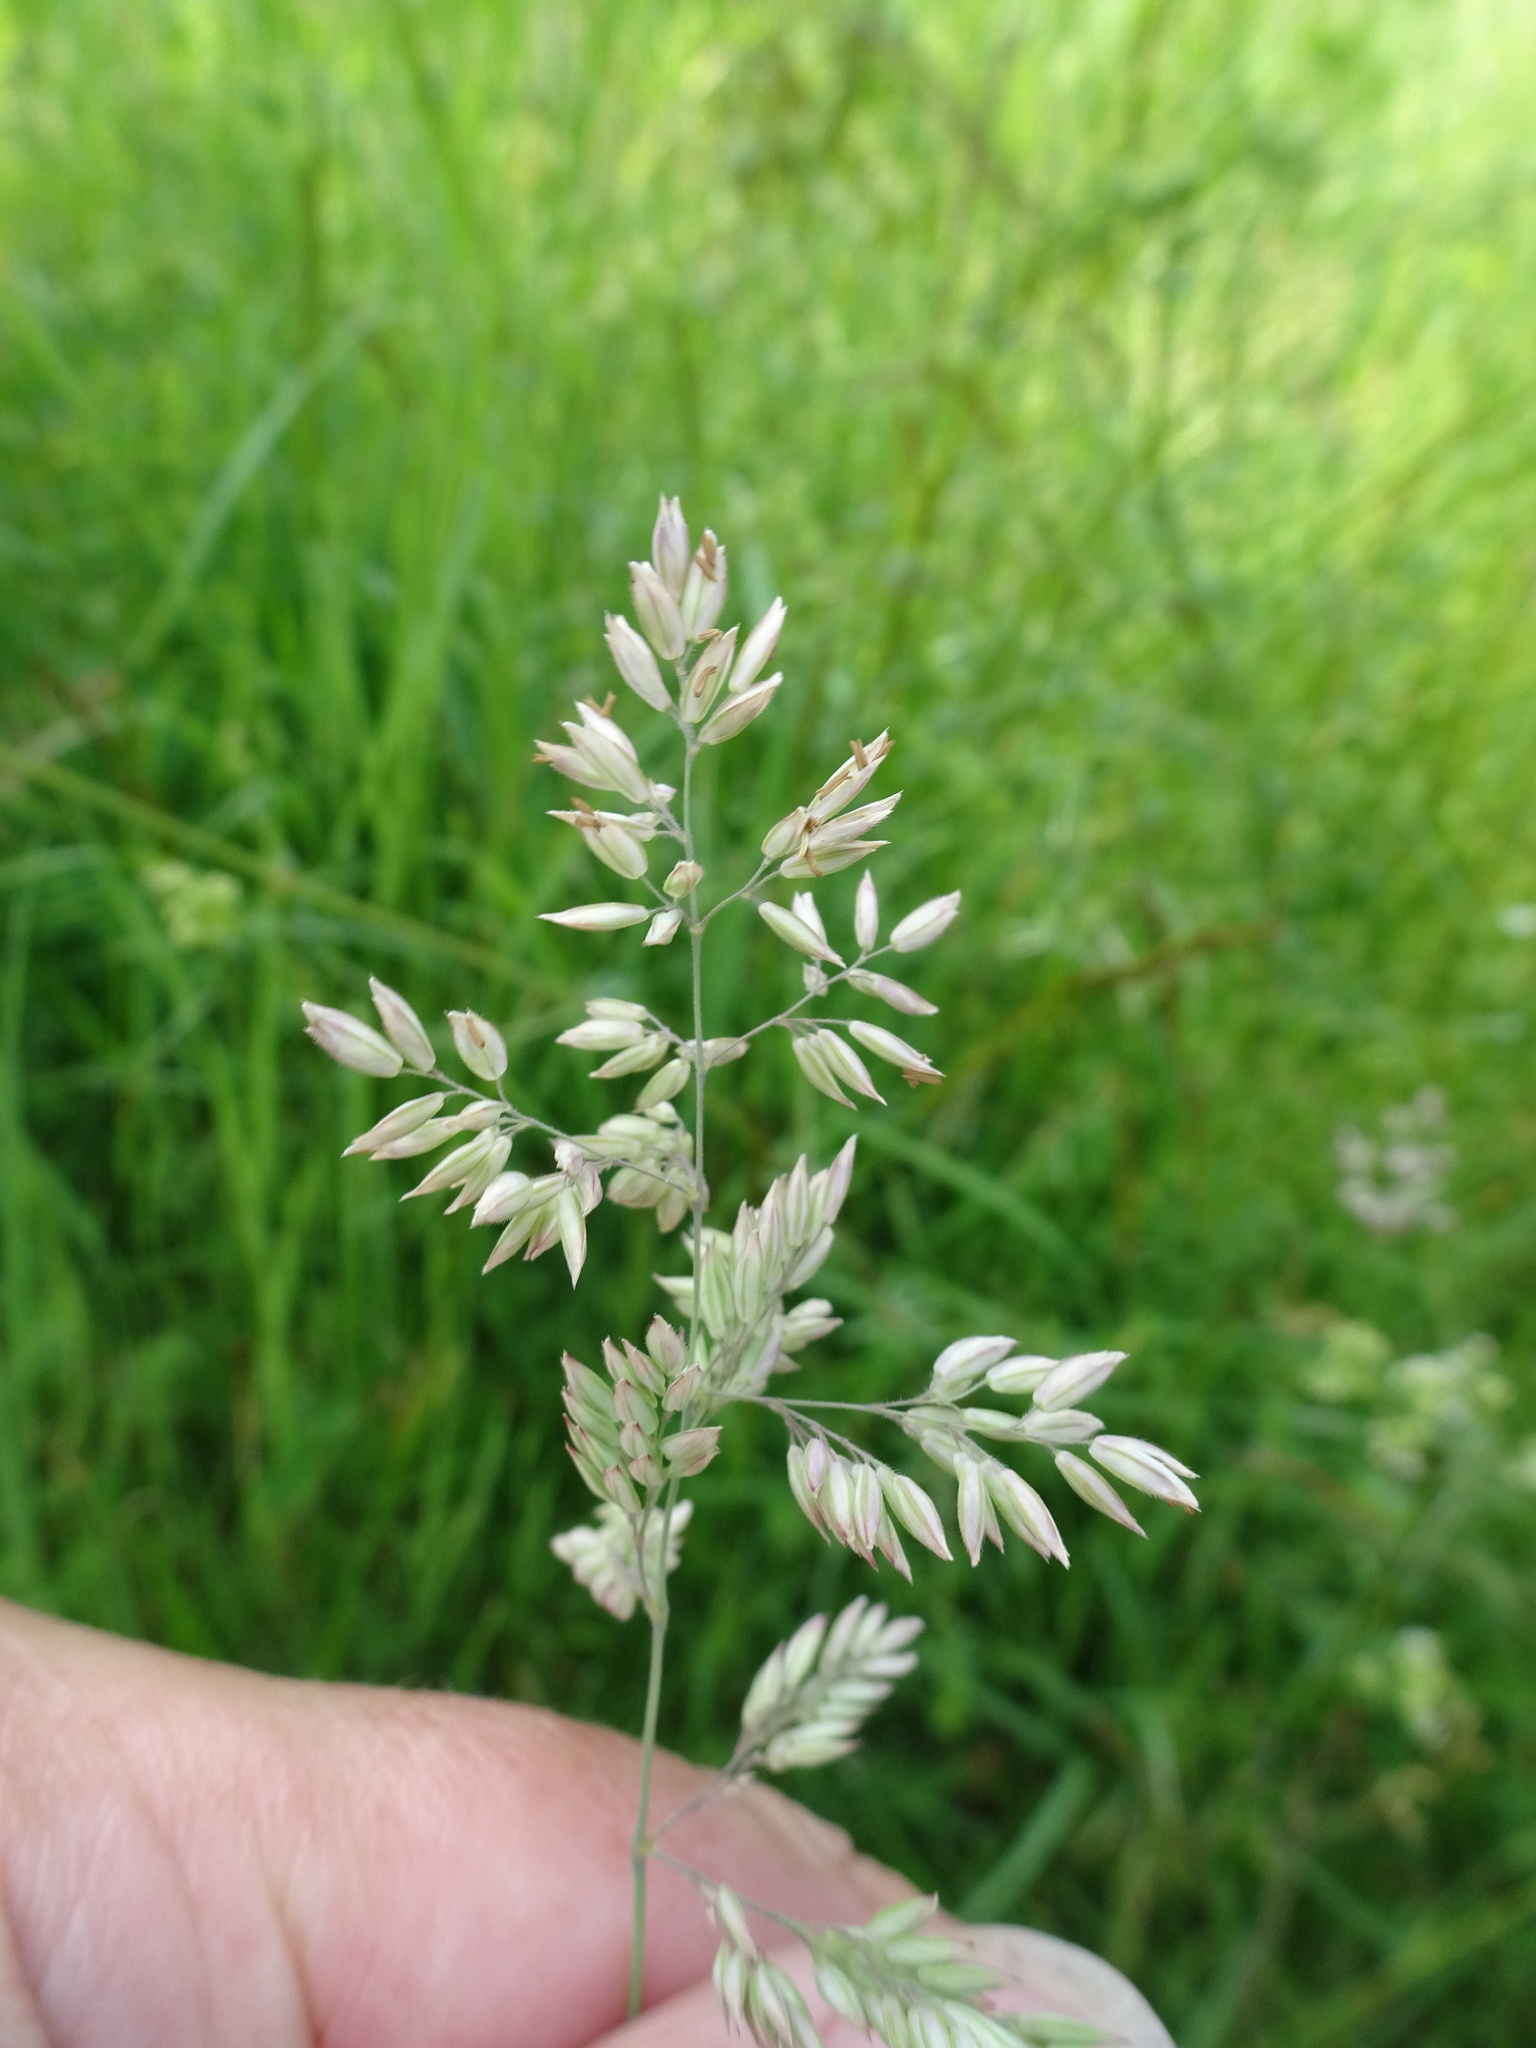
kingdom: Plantae
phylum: Tracheophyta
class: Liliopsida
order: Poales
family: Poaceae
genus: Holcus
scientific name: Holcus lanatus
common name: Yorkshire-fog
